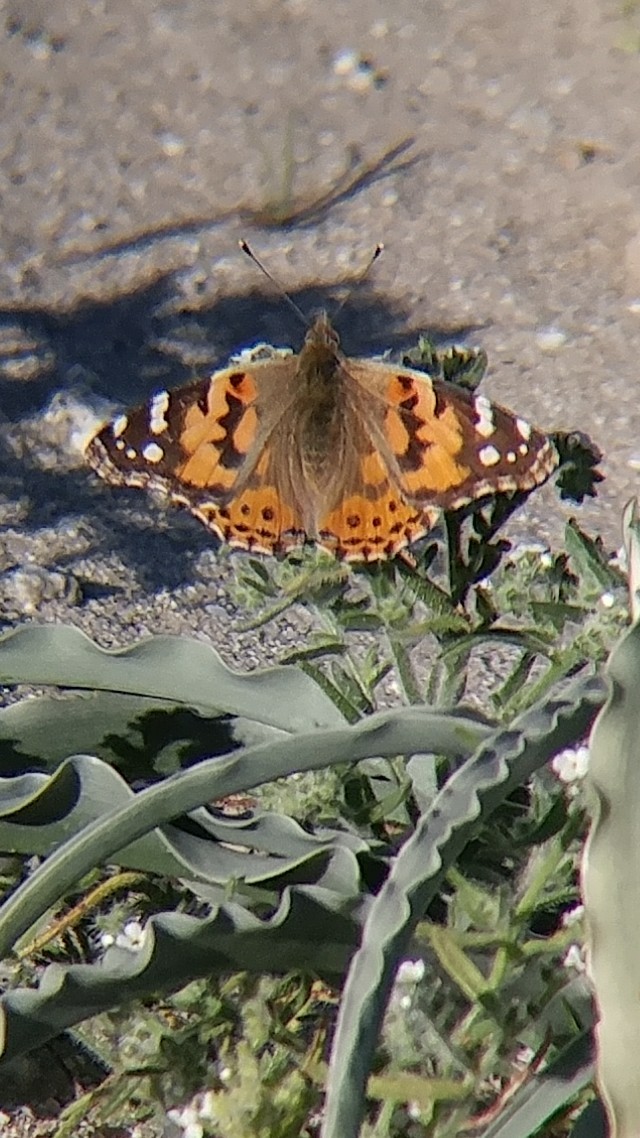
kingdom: Animalia
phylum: Arthropoda
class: Insecta
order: Lepidoptera
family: Nymphalidae
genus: Vanessa
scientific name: Vanessa cardui
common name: Painted lady
